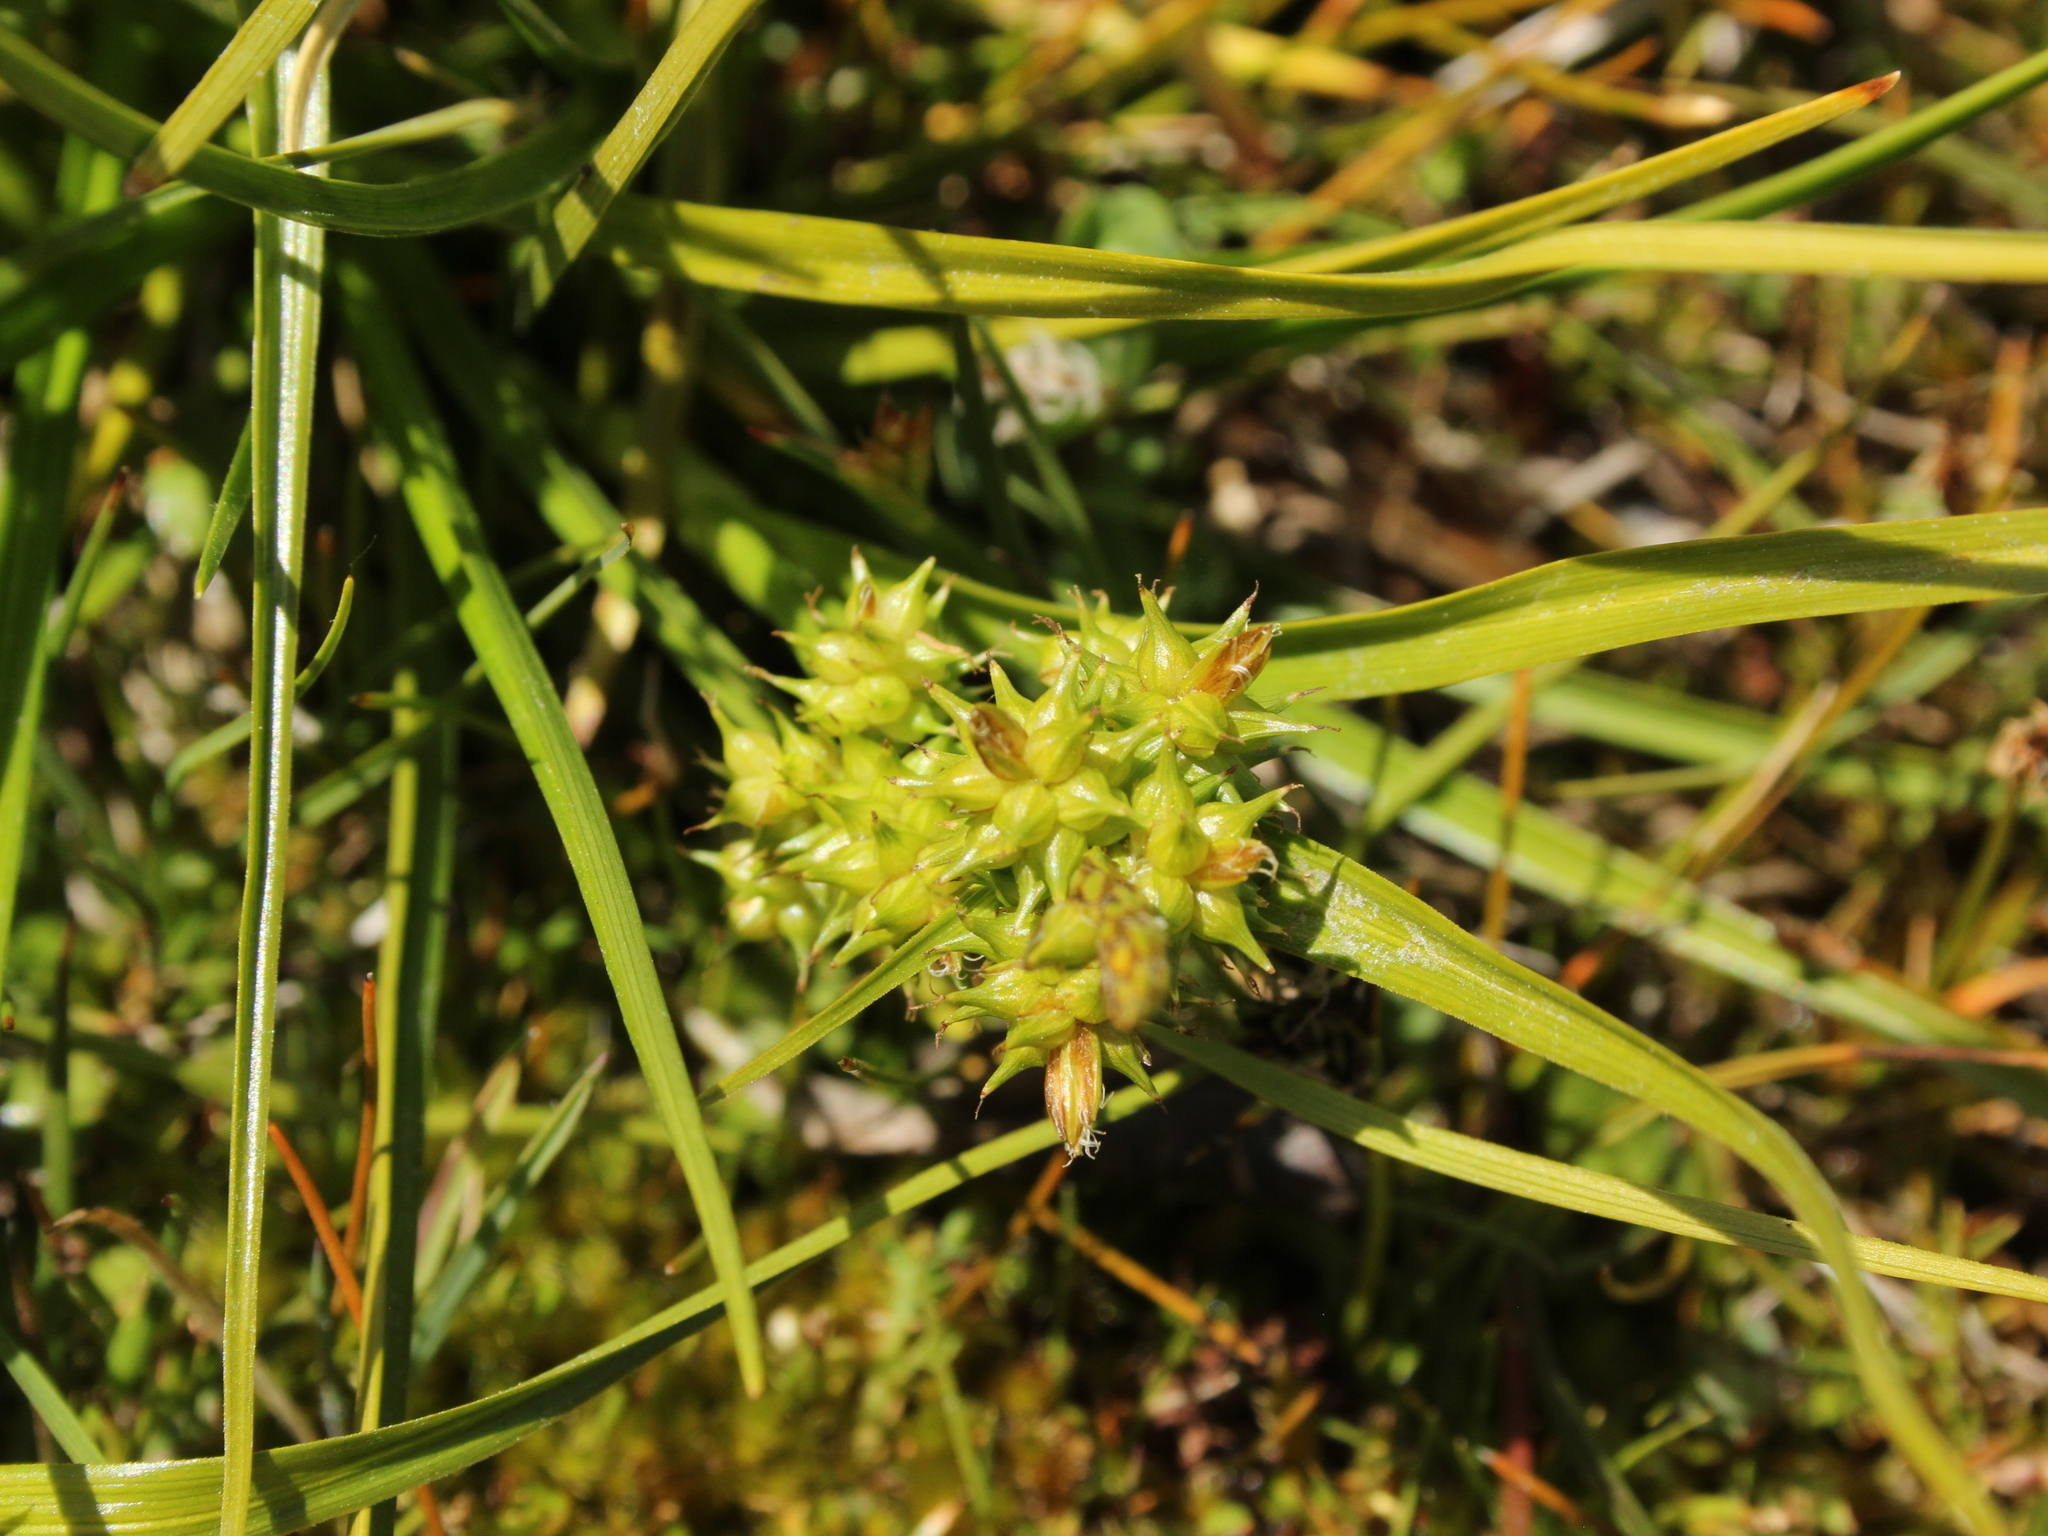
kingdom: Plantae
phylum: Tracheophyta
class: Liliopsida
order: Poales
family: Cyperaceae
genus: Carex
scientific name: Carex flaviformis
